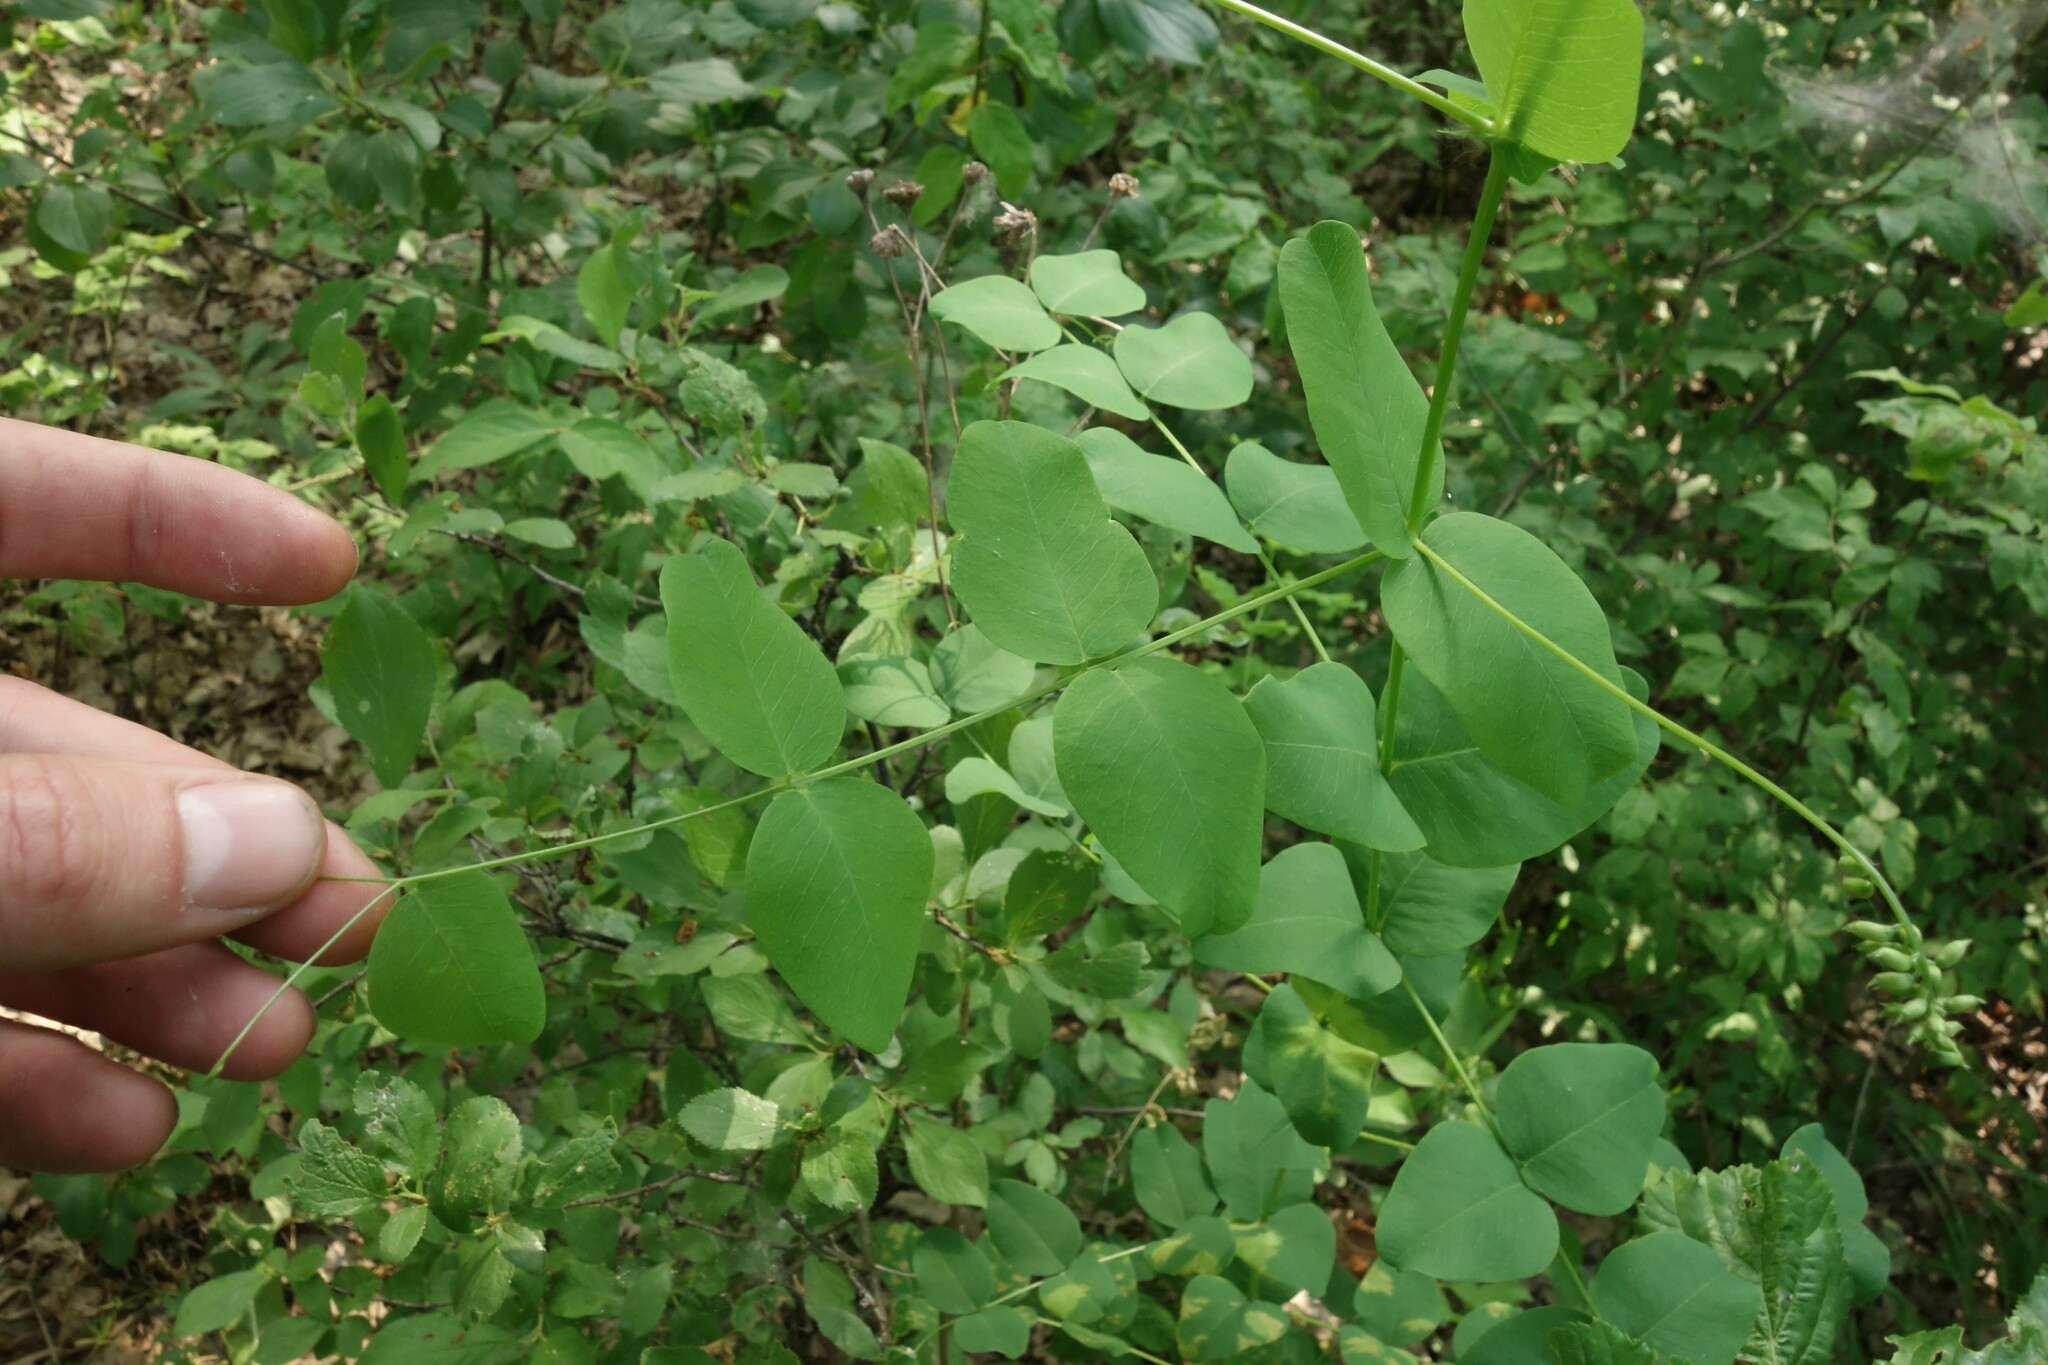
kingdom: Plantae
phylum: Tracheophyta
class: Magnoliopsida
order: Fabales
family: Fabaceae
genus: Vicia
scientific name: Vicia pisiformis
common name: Pale-flower vetch
